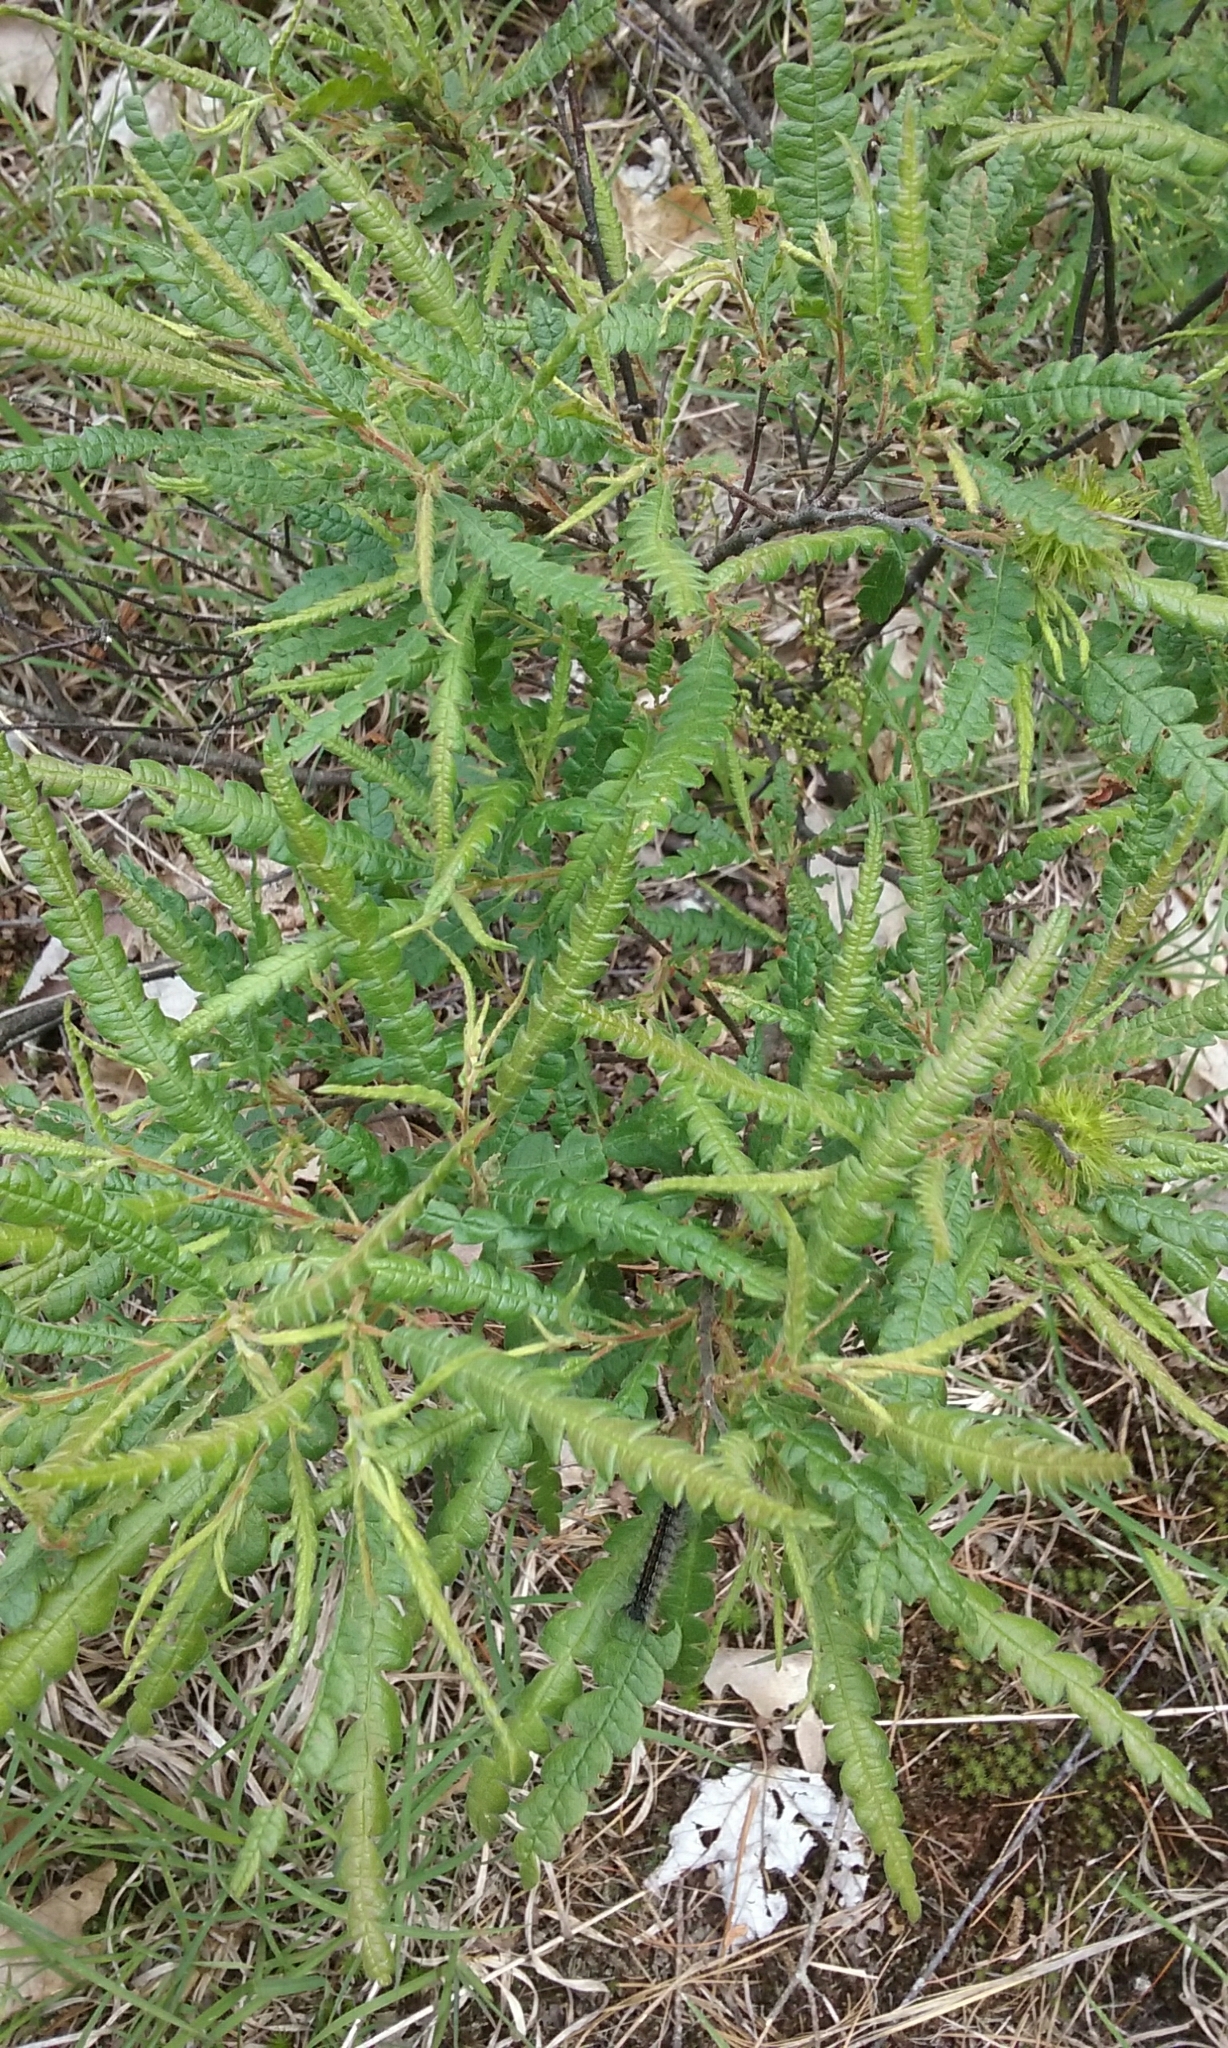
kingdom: Plantae
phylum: Tracheophyta
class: Magnoliopsida
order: Fagales
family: Myricaceae
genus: Comptonia
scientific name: Comptonia peregrina
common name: Sweet-fern
